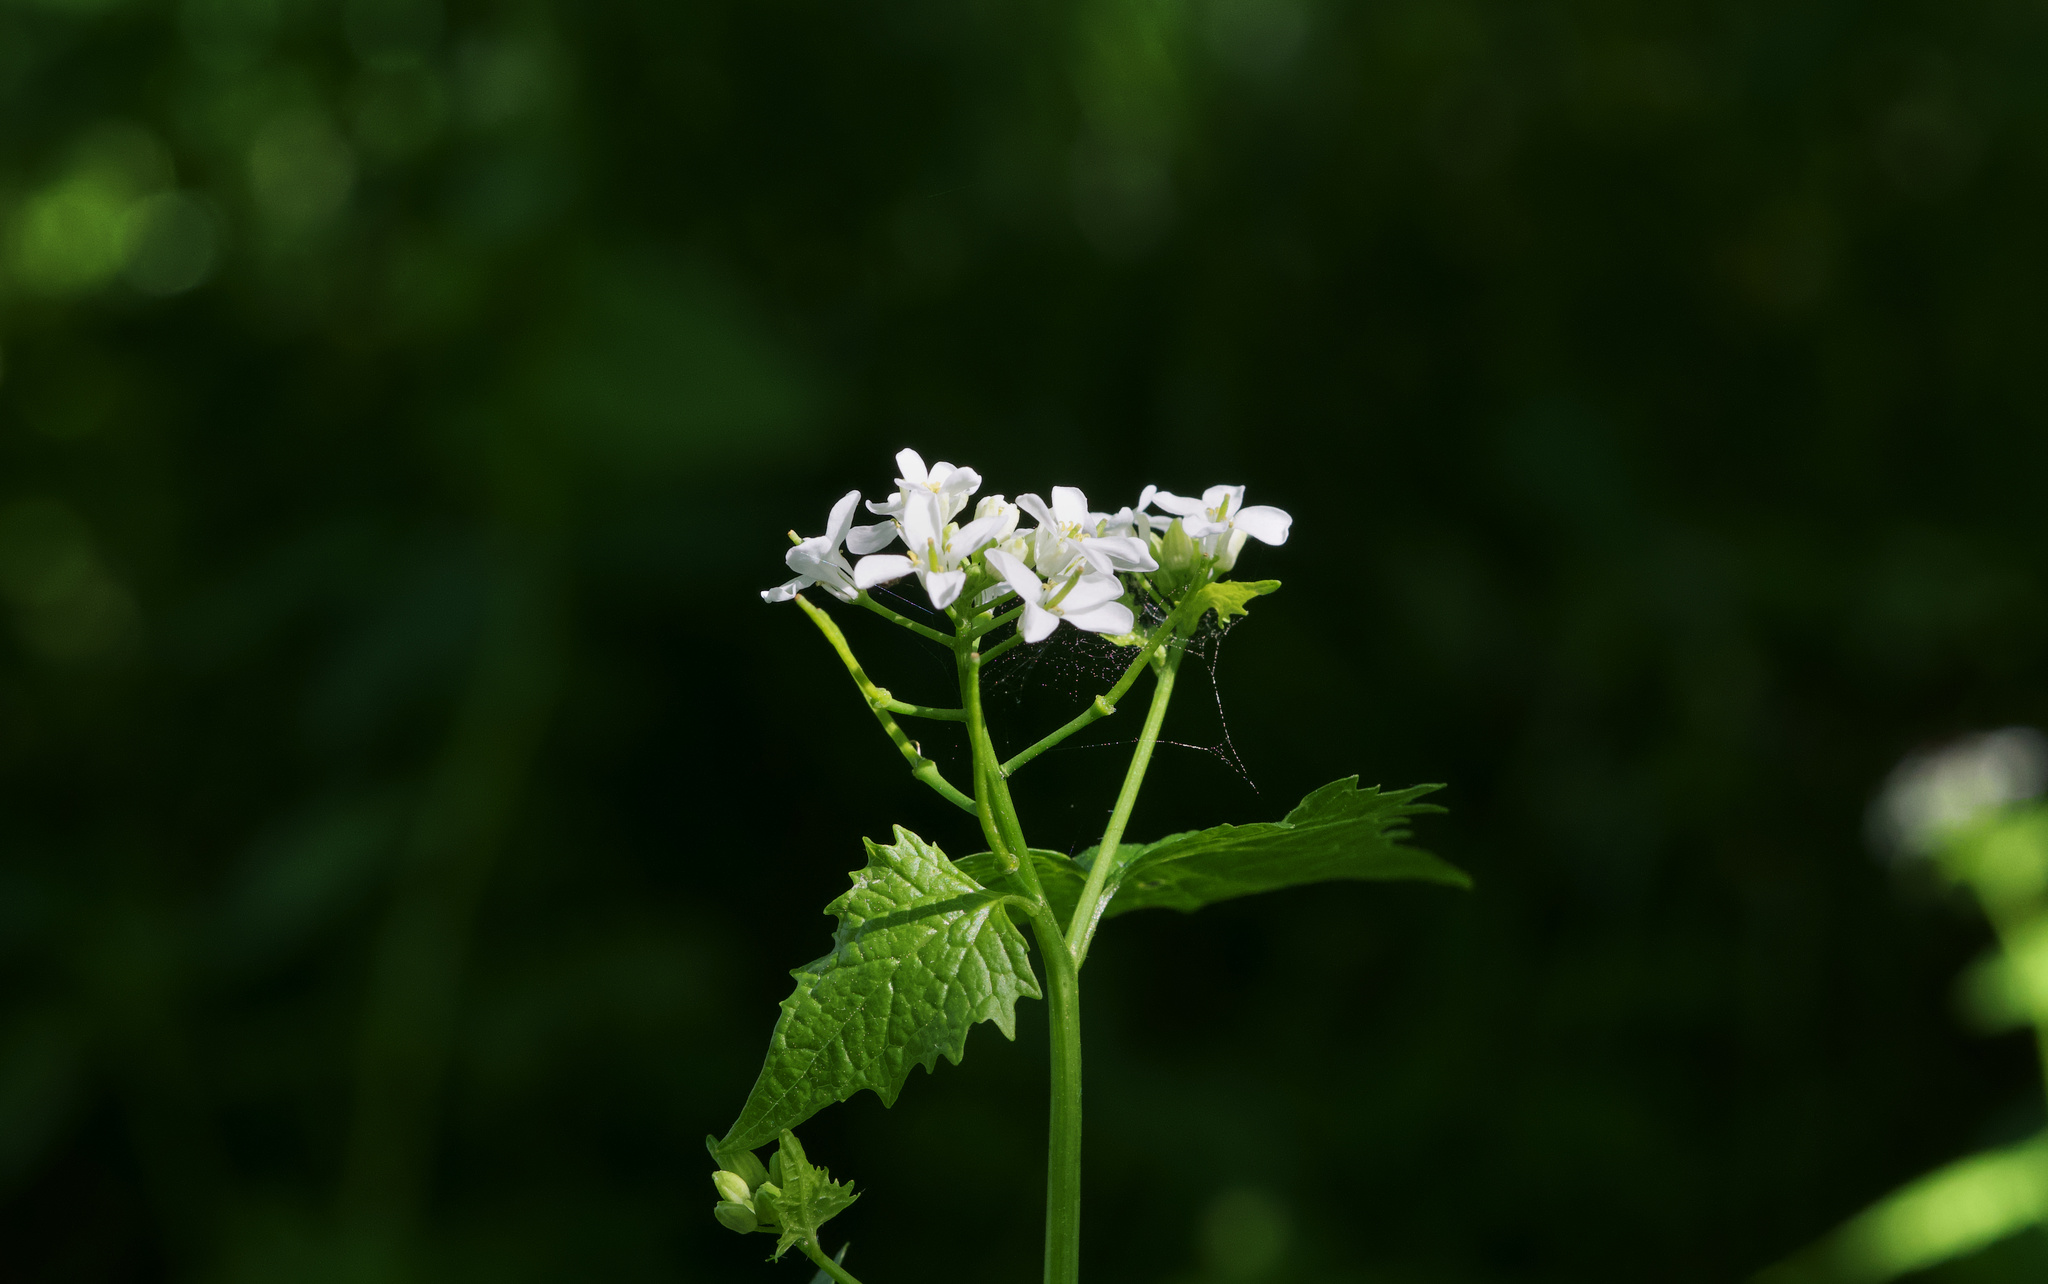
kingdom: Plantae
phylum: Tracheophyta
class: Magnoliopsida
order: Brassicales
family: Brassicaceae
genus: Alliaria
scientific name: Alliaria petiolata
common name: Garlic mustard
